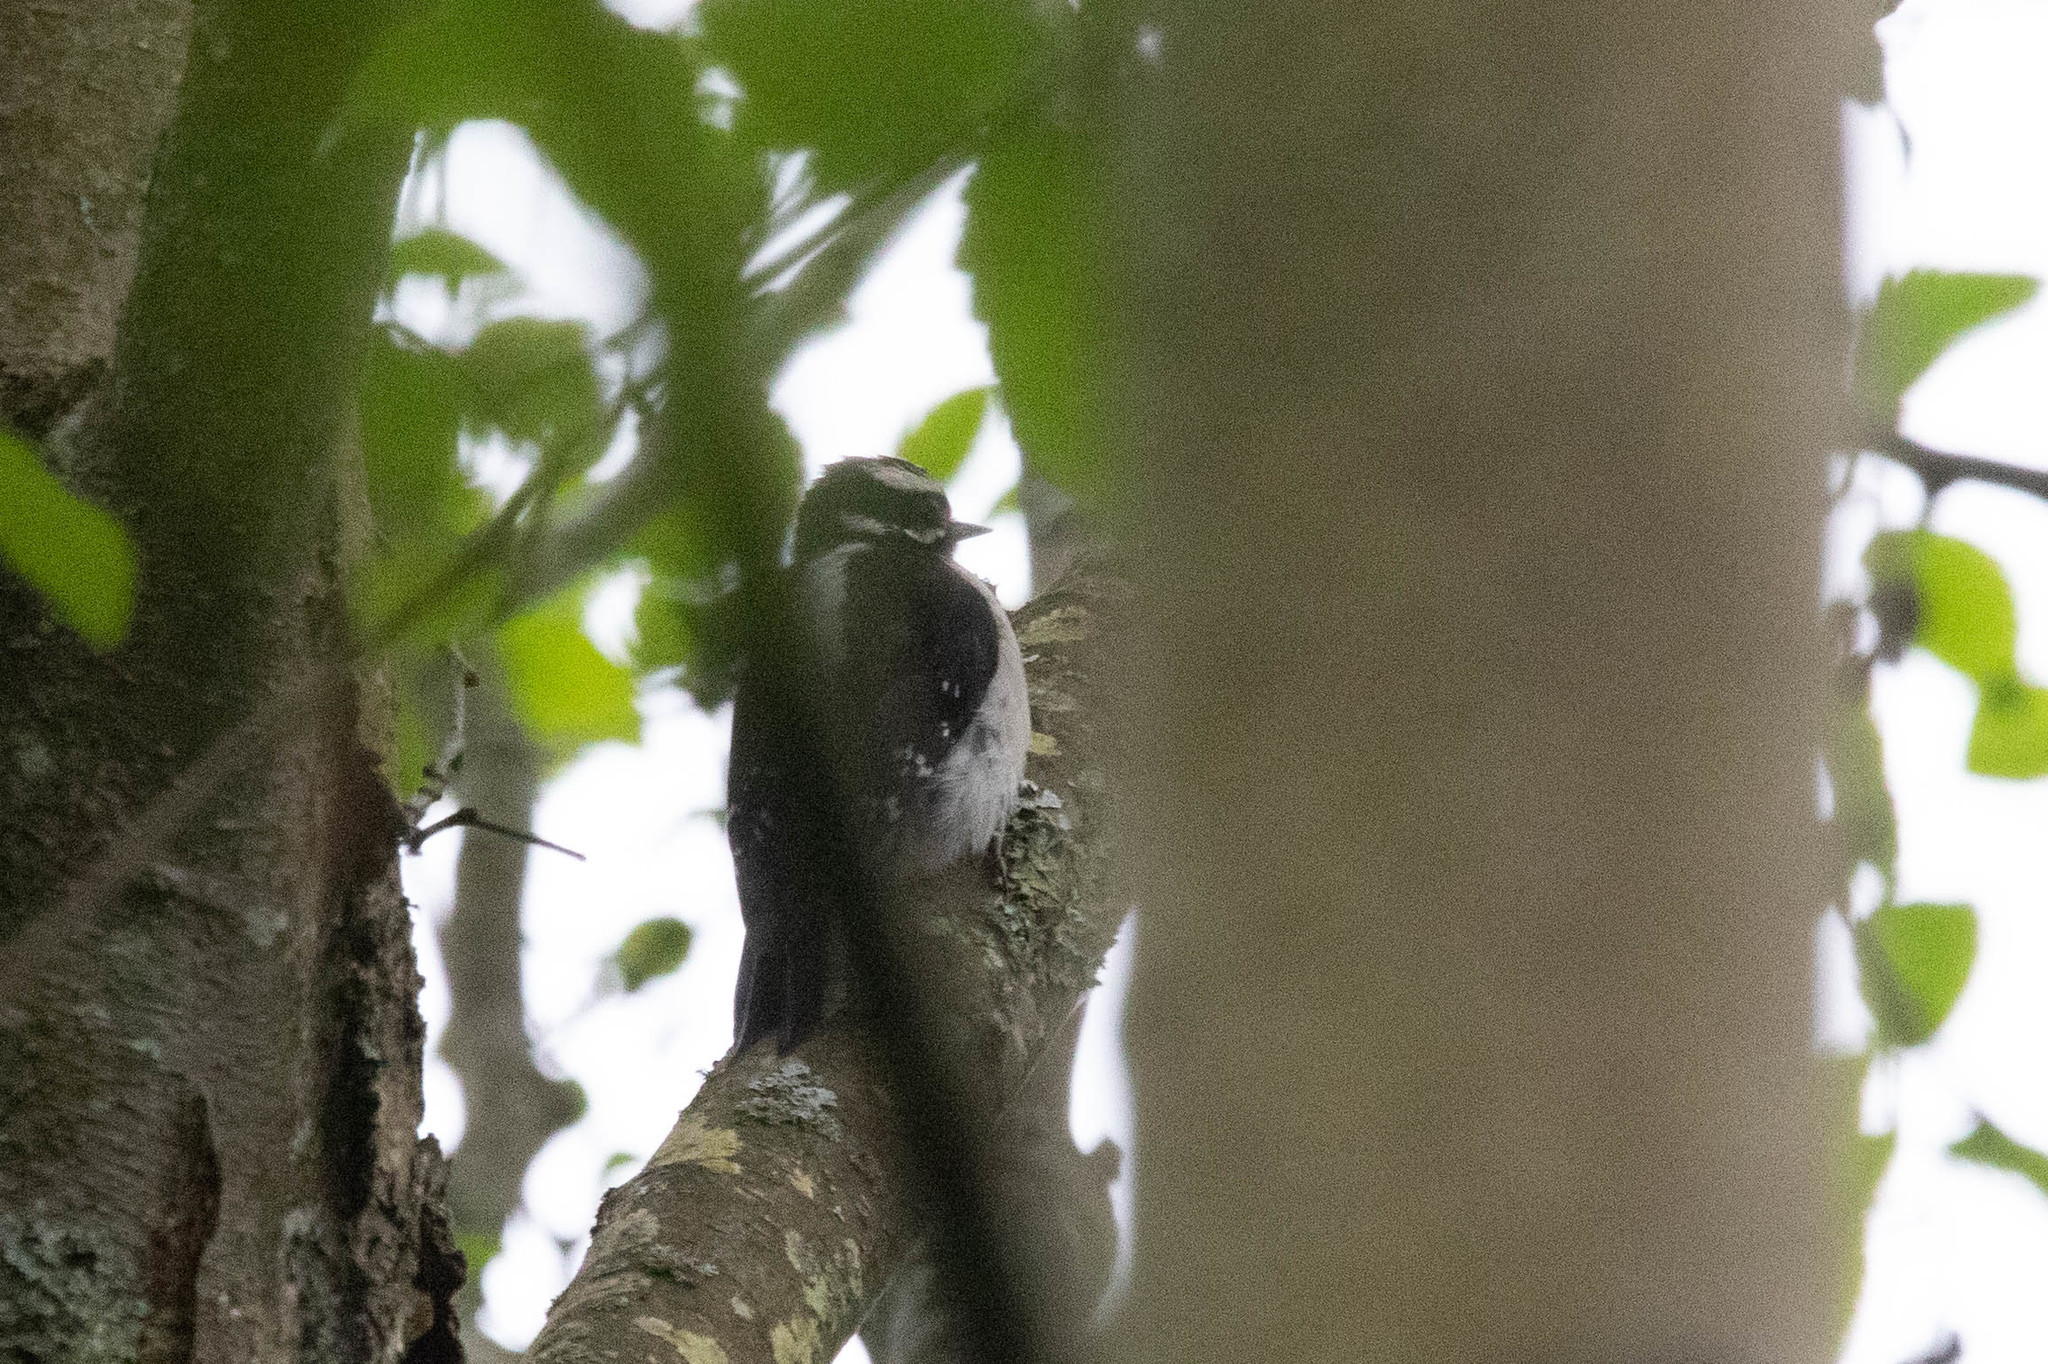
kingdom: Animalia
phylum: Chordata
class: Aves
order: Piciformes
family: Picidae
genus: Dryobates
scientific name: Dryobates pubescens
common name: Downy woodpecker
